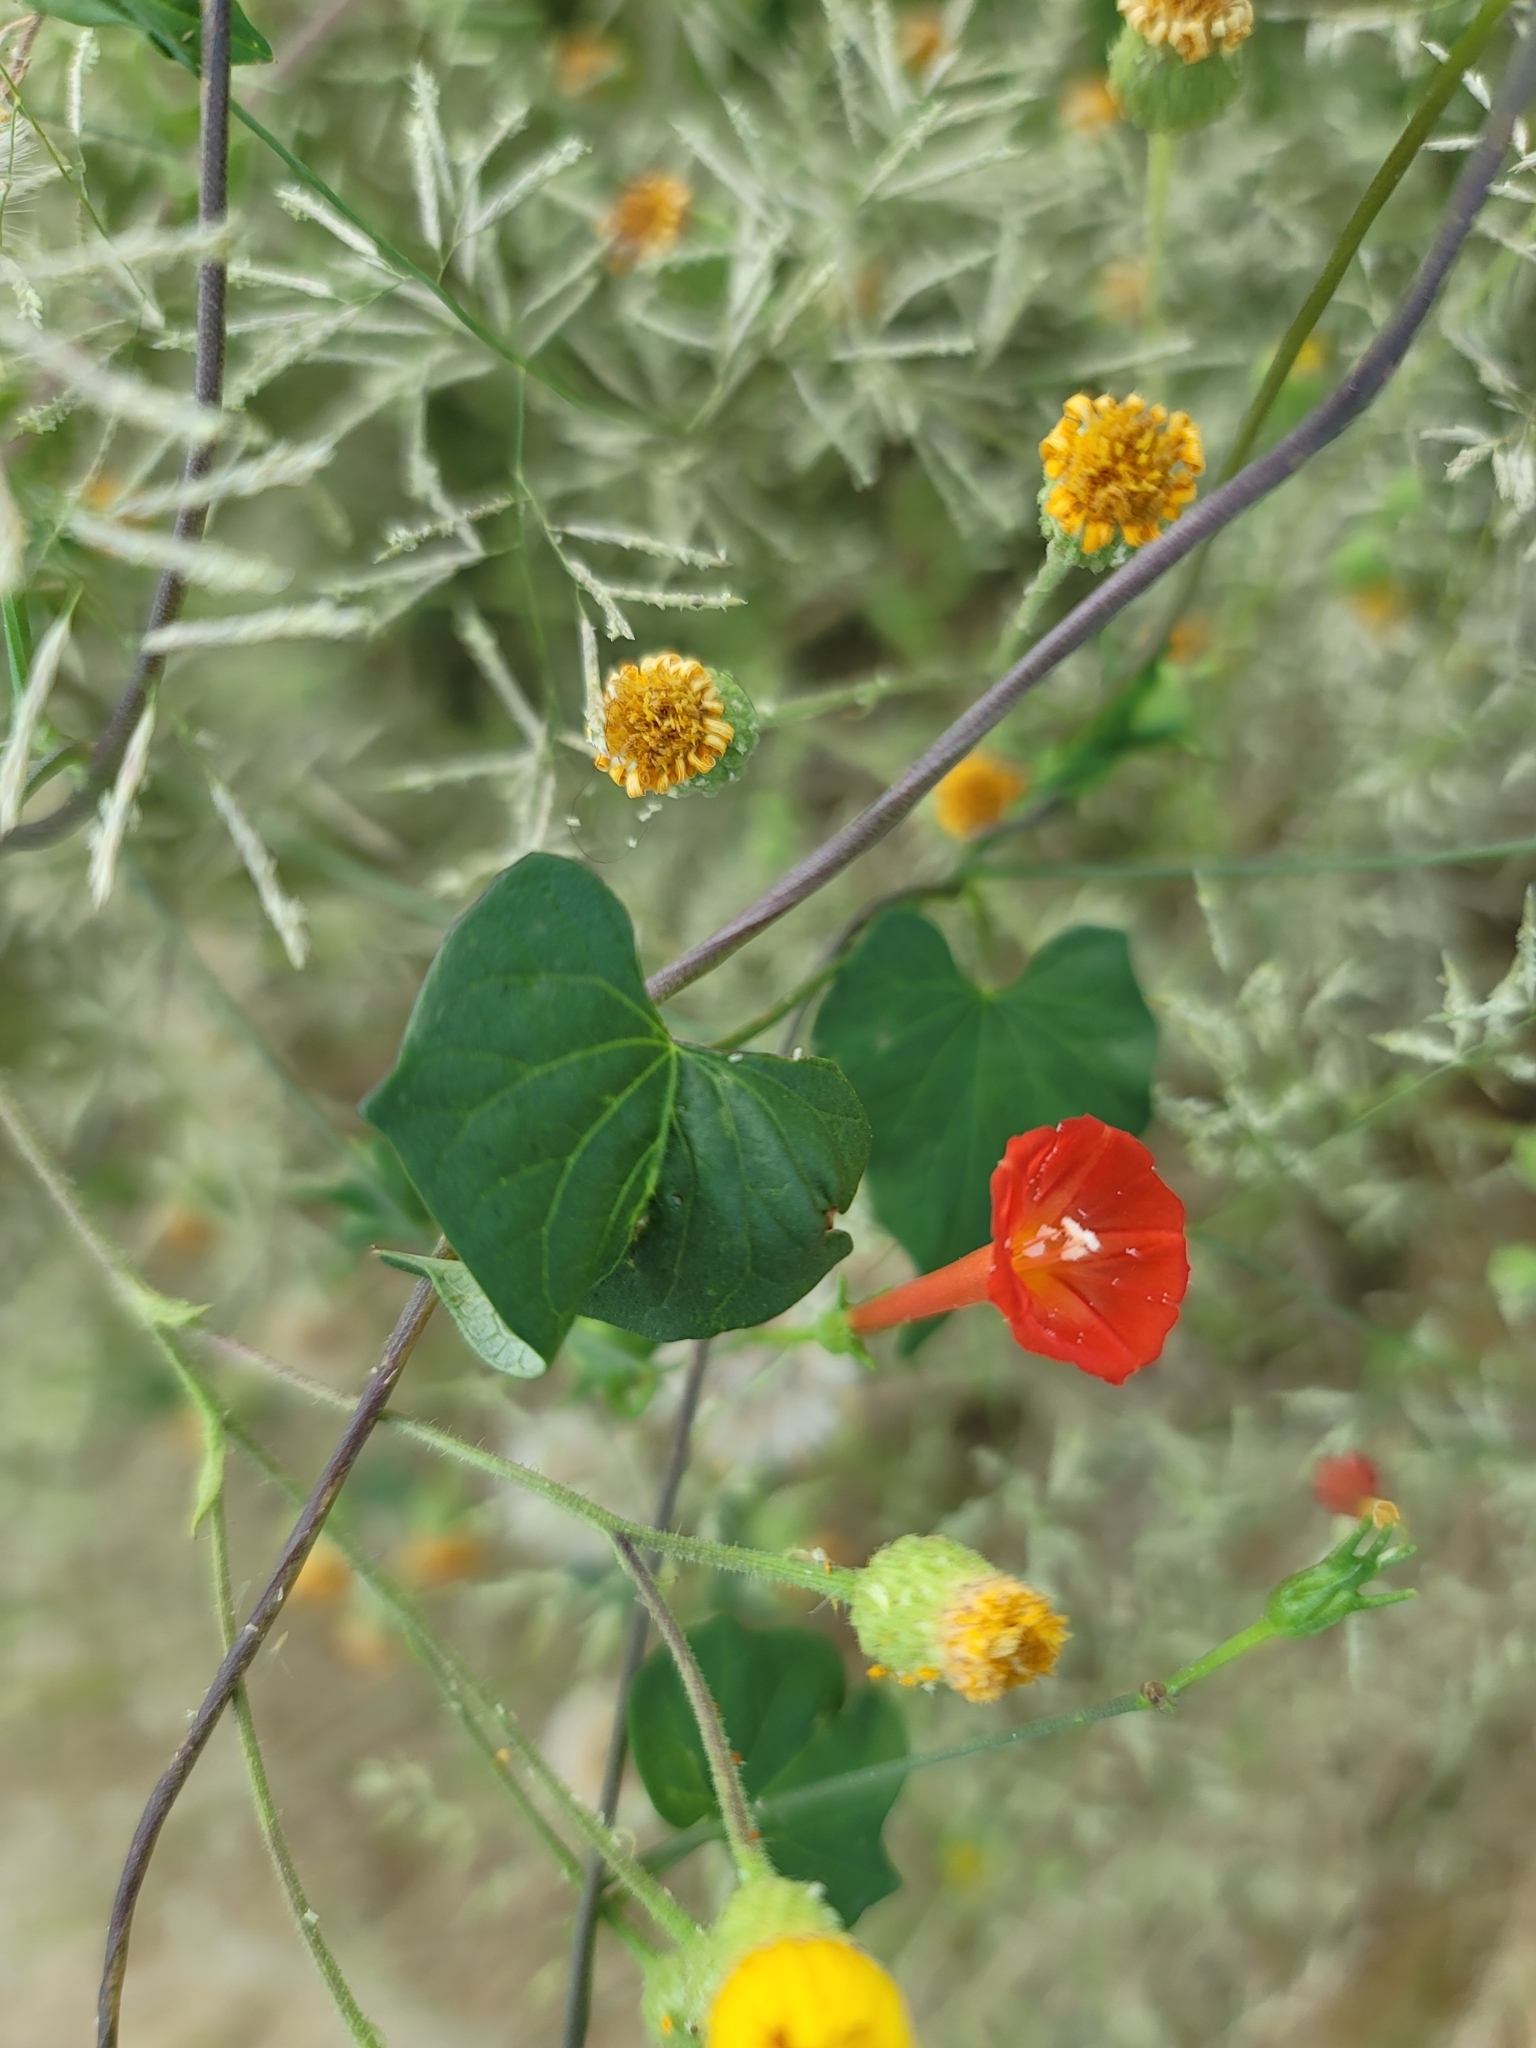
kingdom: Plantae
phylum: Tracheophyta
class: Magnoliopsida
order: Solanales
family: Convolvulaceae
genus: Ipomoea
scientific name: Ipomoea cristulata
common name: Trans-pecos morning-glory
